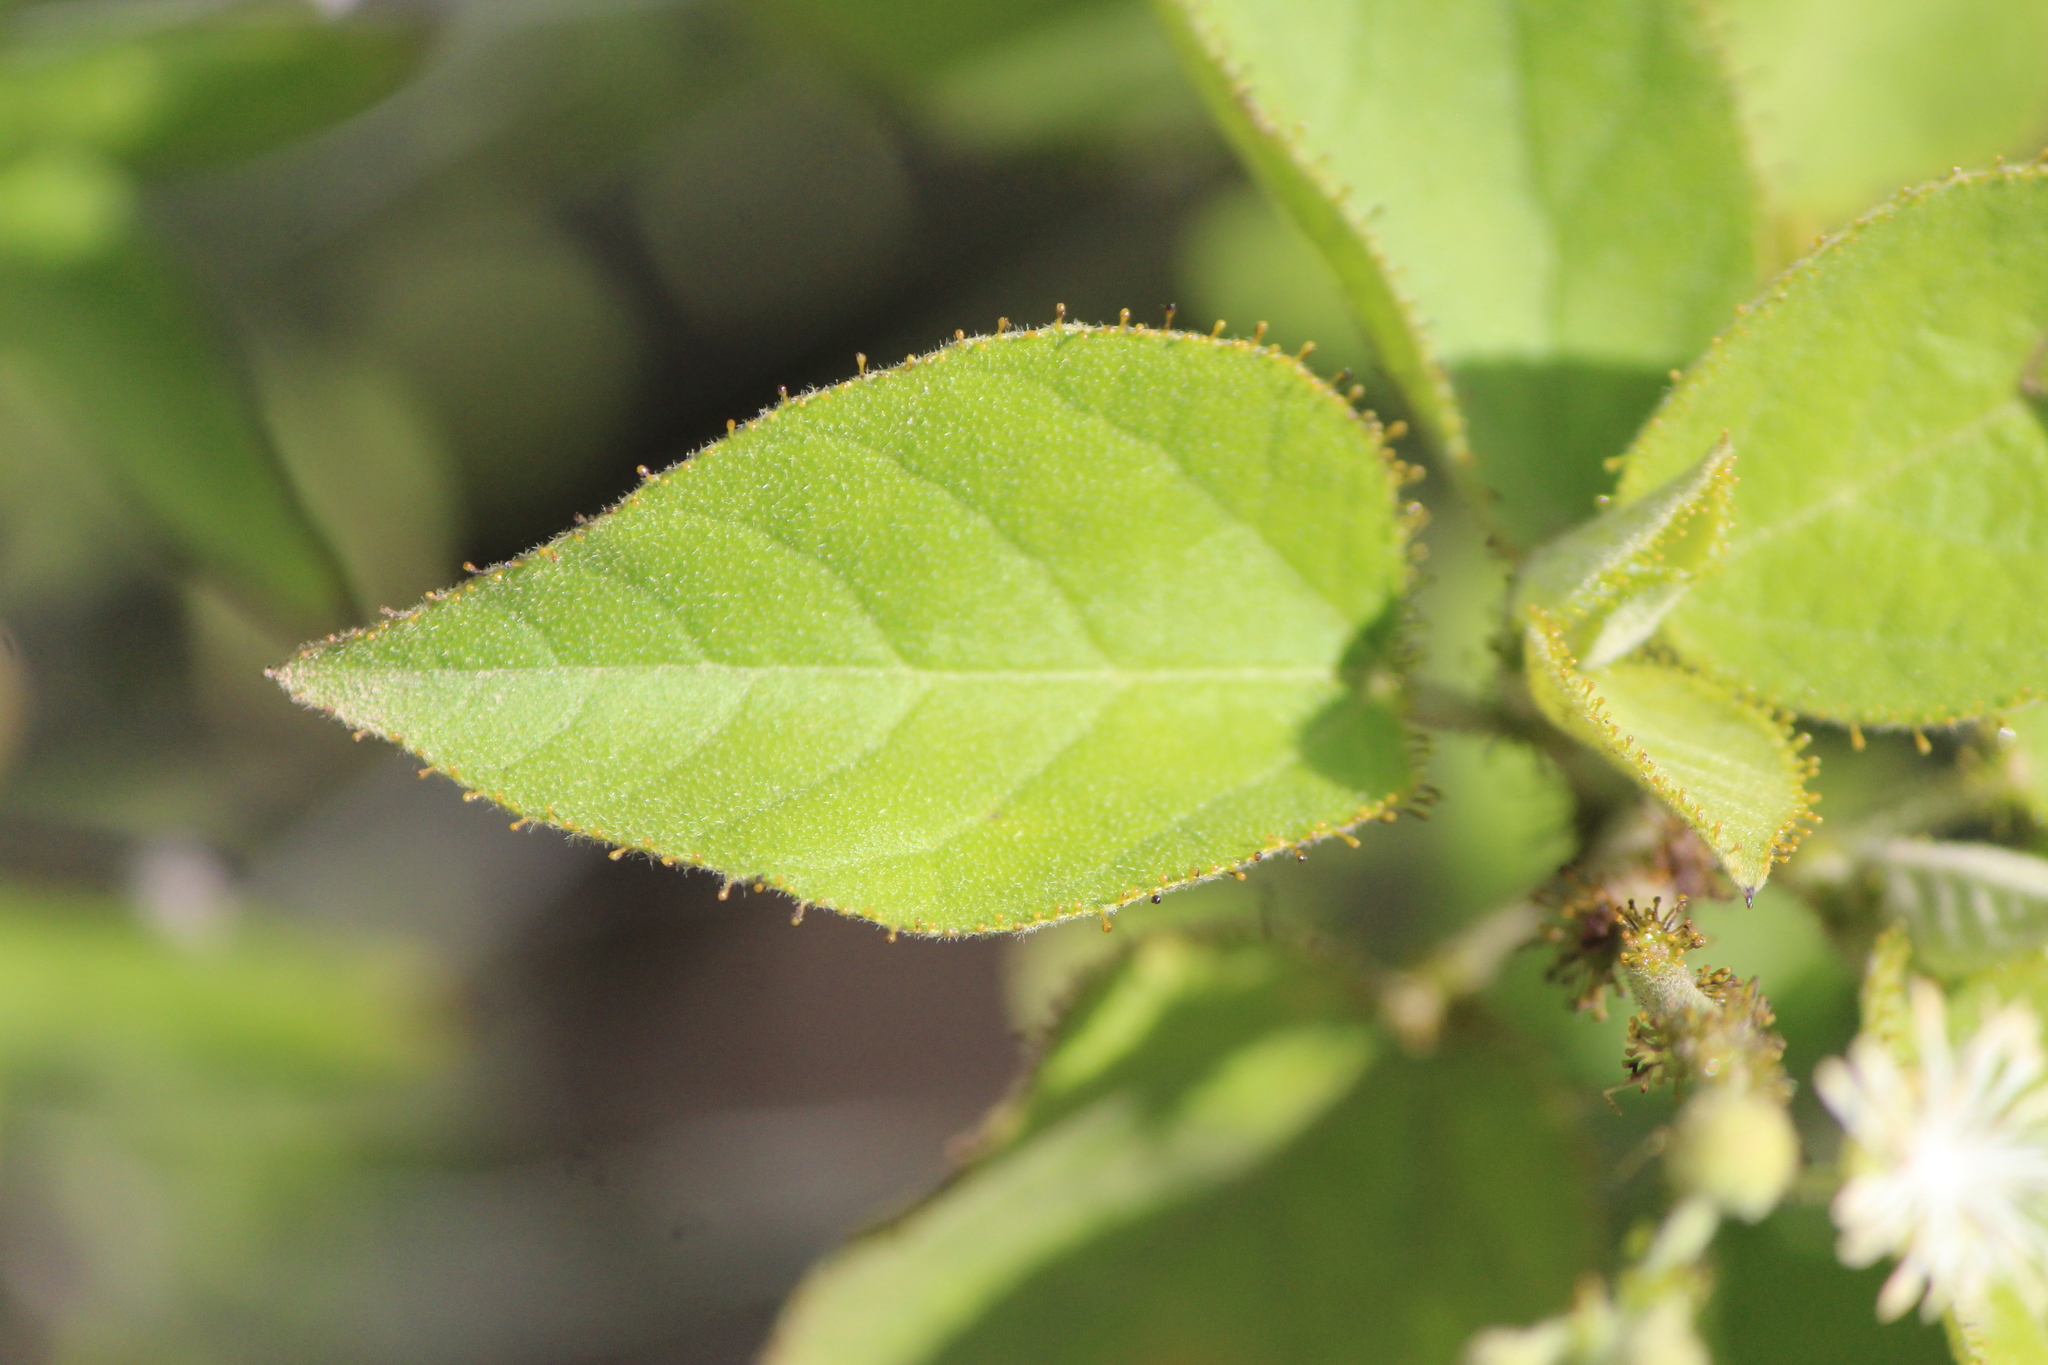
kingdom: Plantae
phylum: Tracheophyta
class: Magnoliopsida
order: Malpighiales
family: Euphorbiaceae
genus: Croton
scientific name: Croton ciliatoglandulifer
